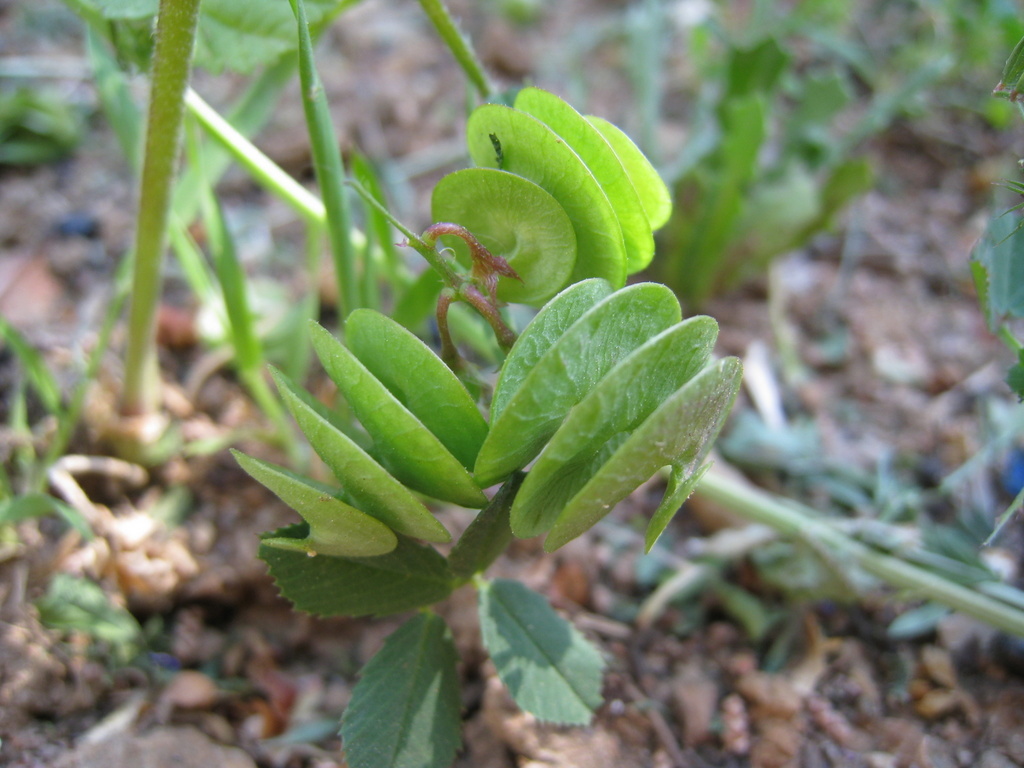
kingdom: Plantae
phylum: Tracheophyta
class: Magnoliopsida
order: Fabales
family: Fabaceae
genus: Medicago
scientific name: Medicago orbicularis
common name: Button medick
